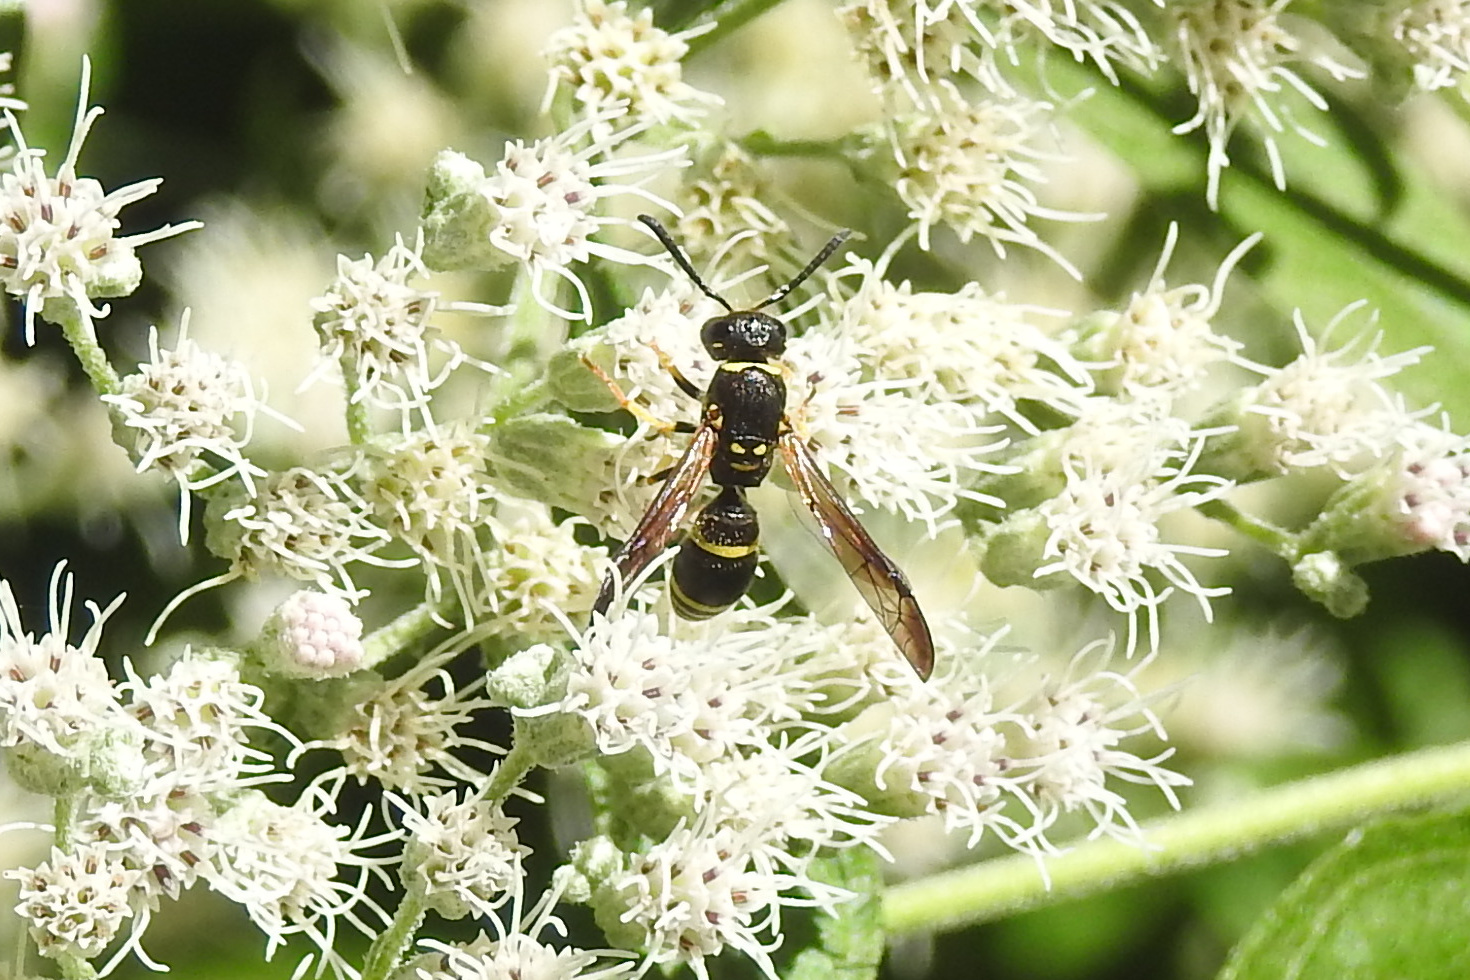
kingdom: Animalia
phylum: Arthropoda
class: Insecta
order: Hymenoptera
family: Vespidae
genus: Ancistrocerus
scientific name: Ancistrocerus adiabatus
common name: Bramble mason wasp
